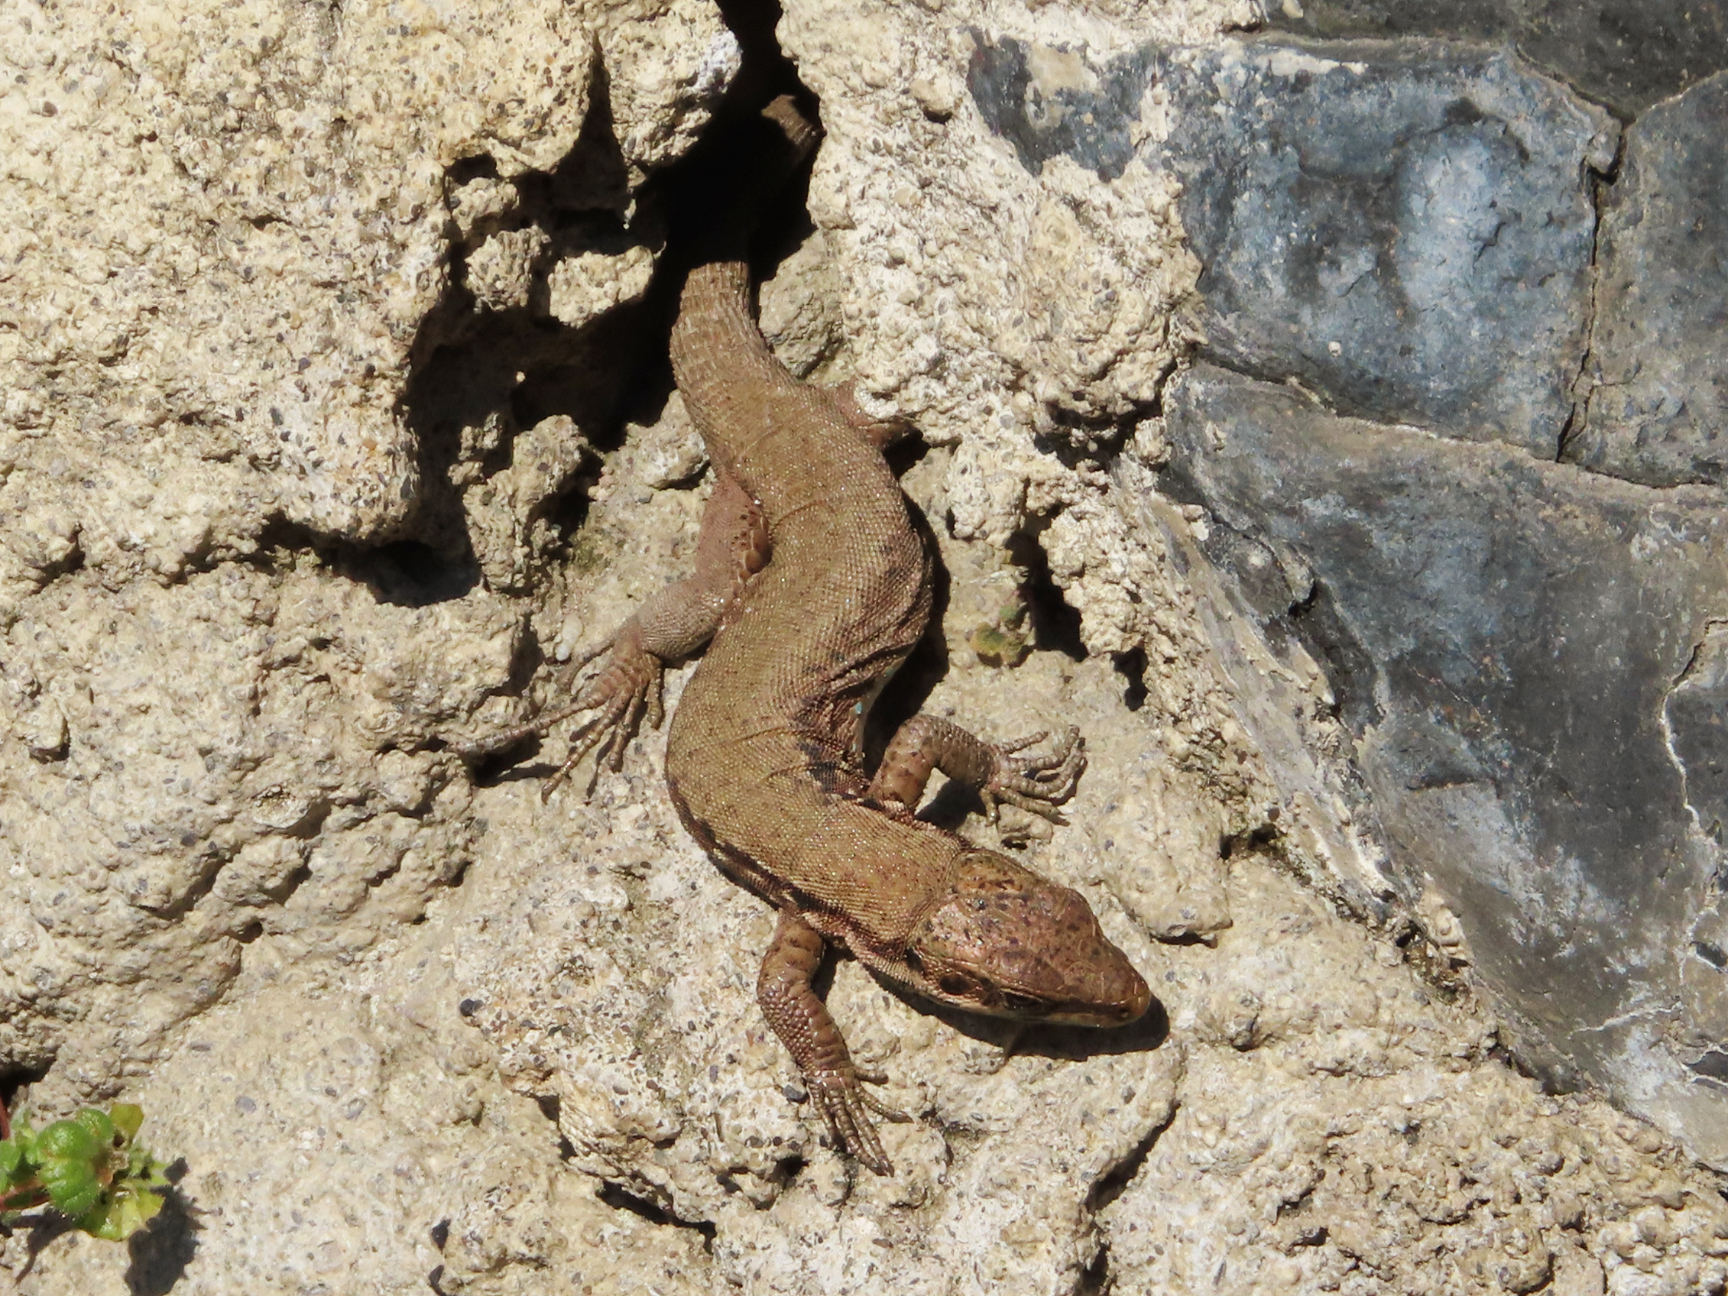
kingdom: Animalia
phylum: Chordata
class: Squamata
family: Lacertidae
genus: Phoenicolacerta
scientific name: Phoenicolacerta laevis
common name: Lebanon lizard
